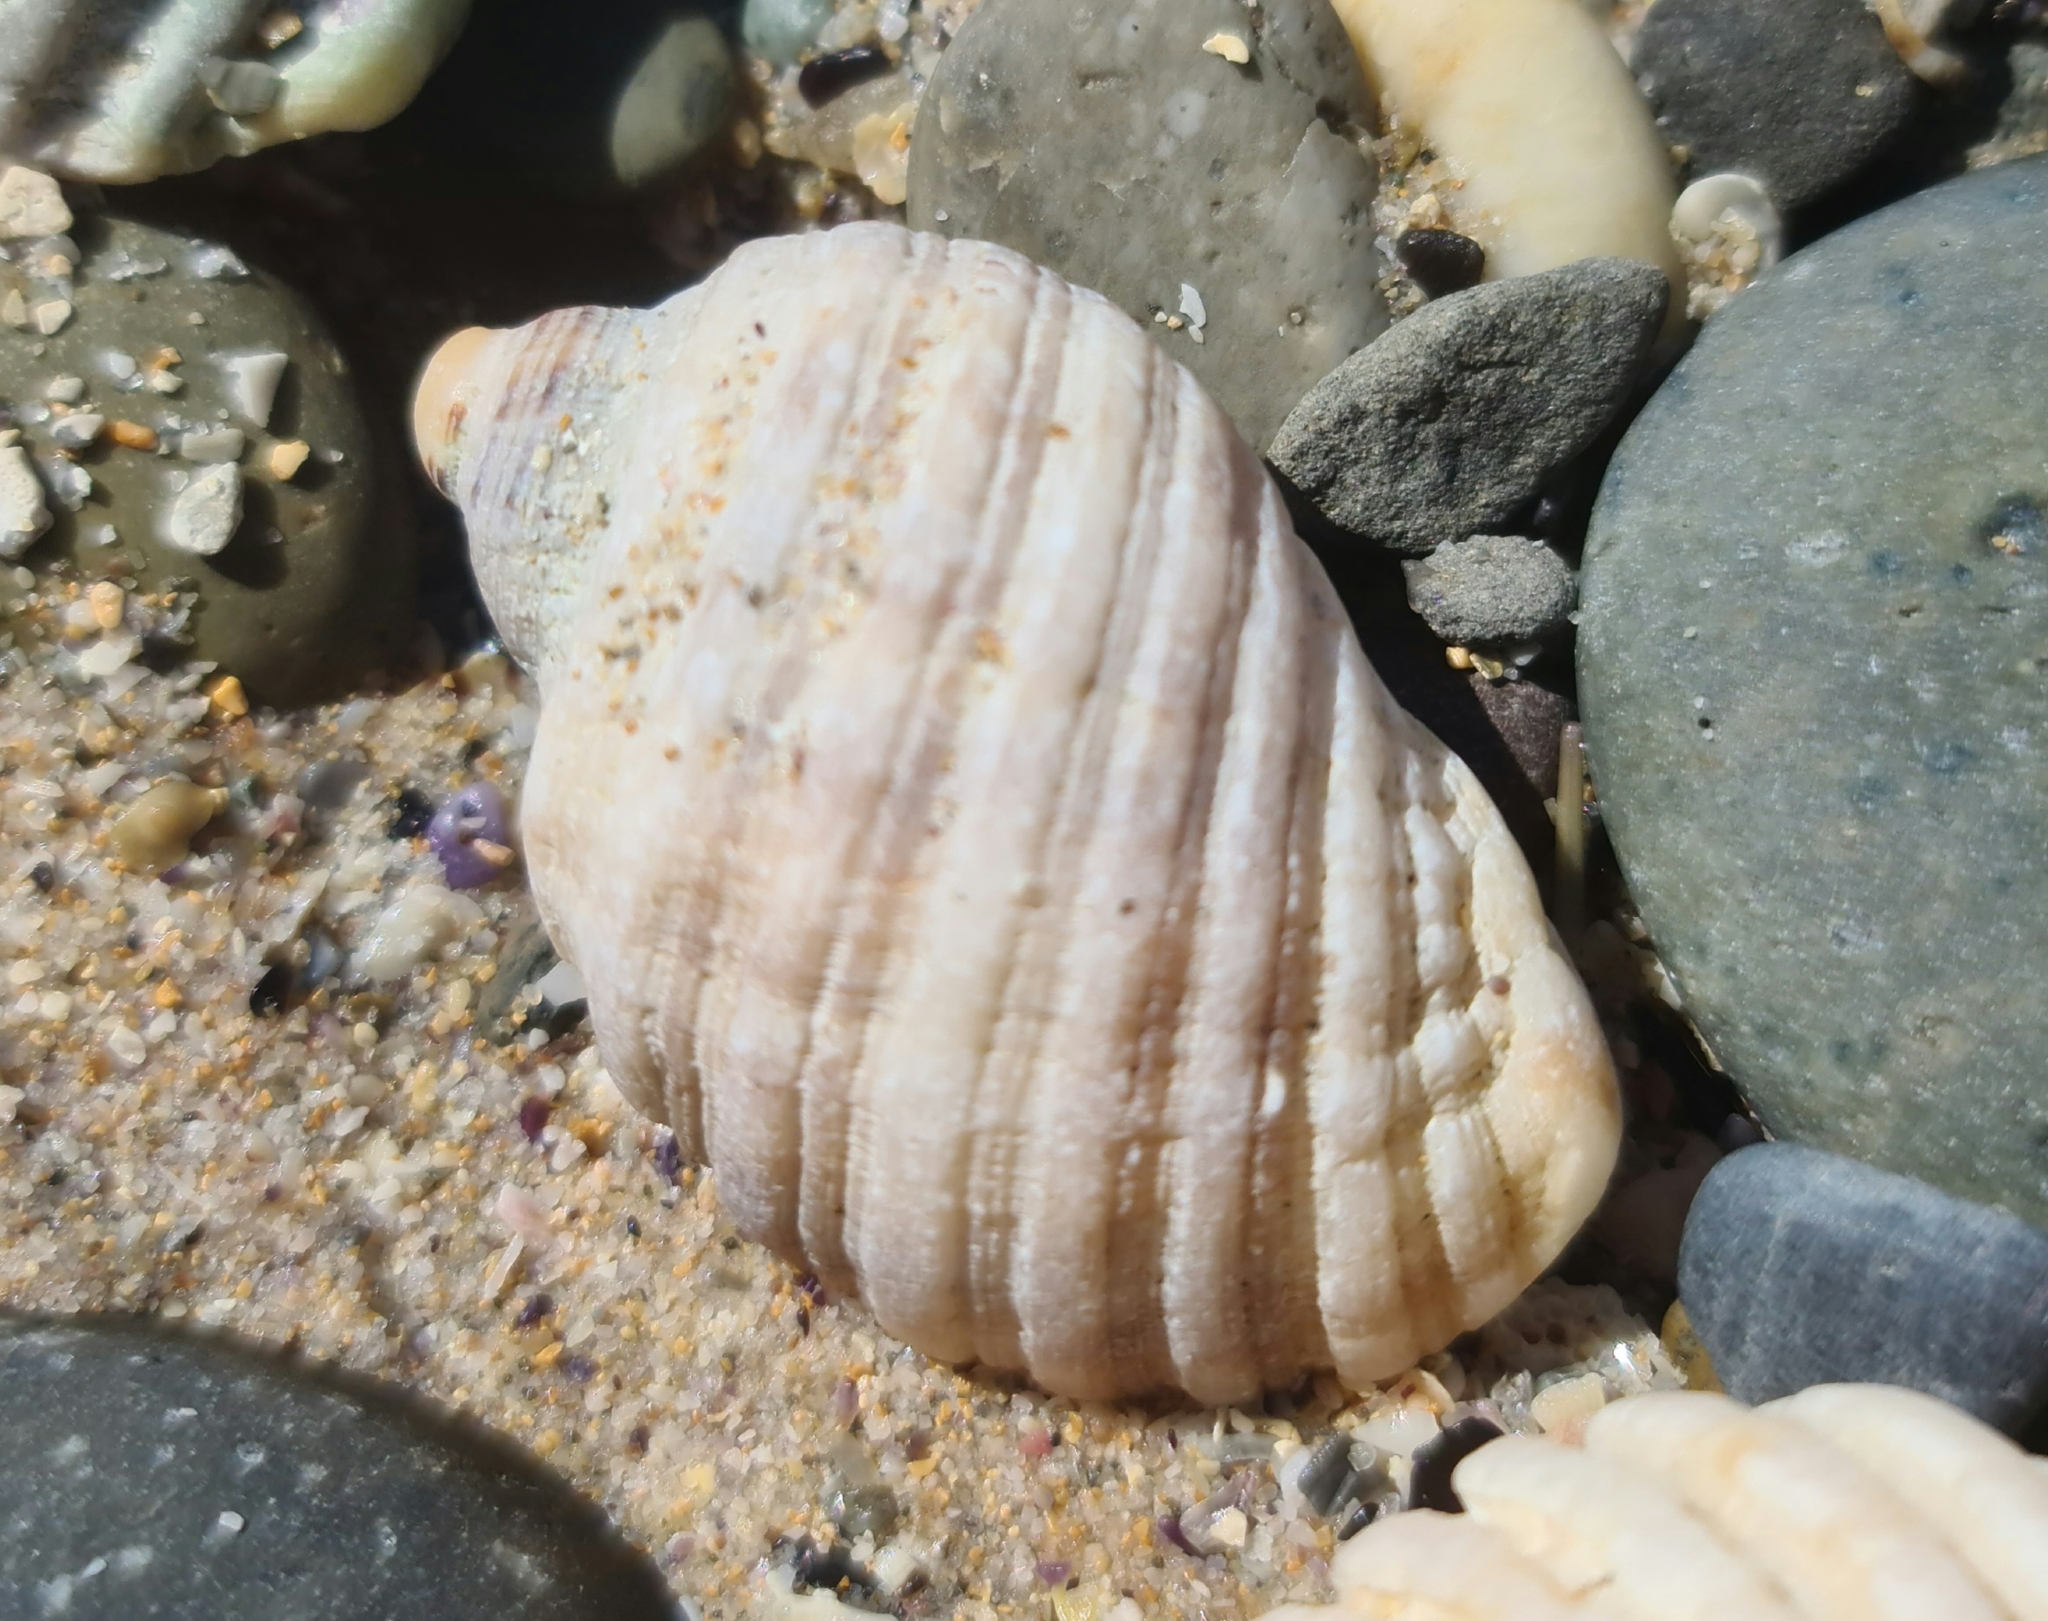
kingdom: Animalia
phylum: Mollusca
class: Gastropoda
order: Neogastropoda
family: Muricidae
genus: Dicathais
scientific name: Dicathais orbita
